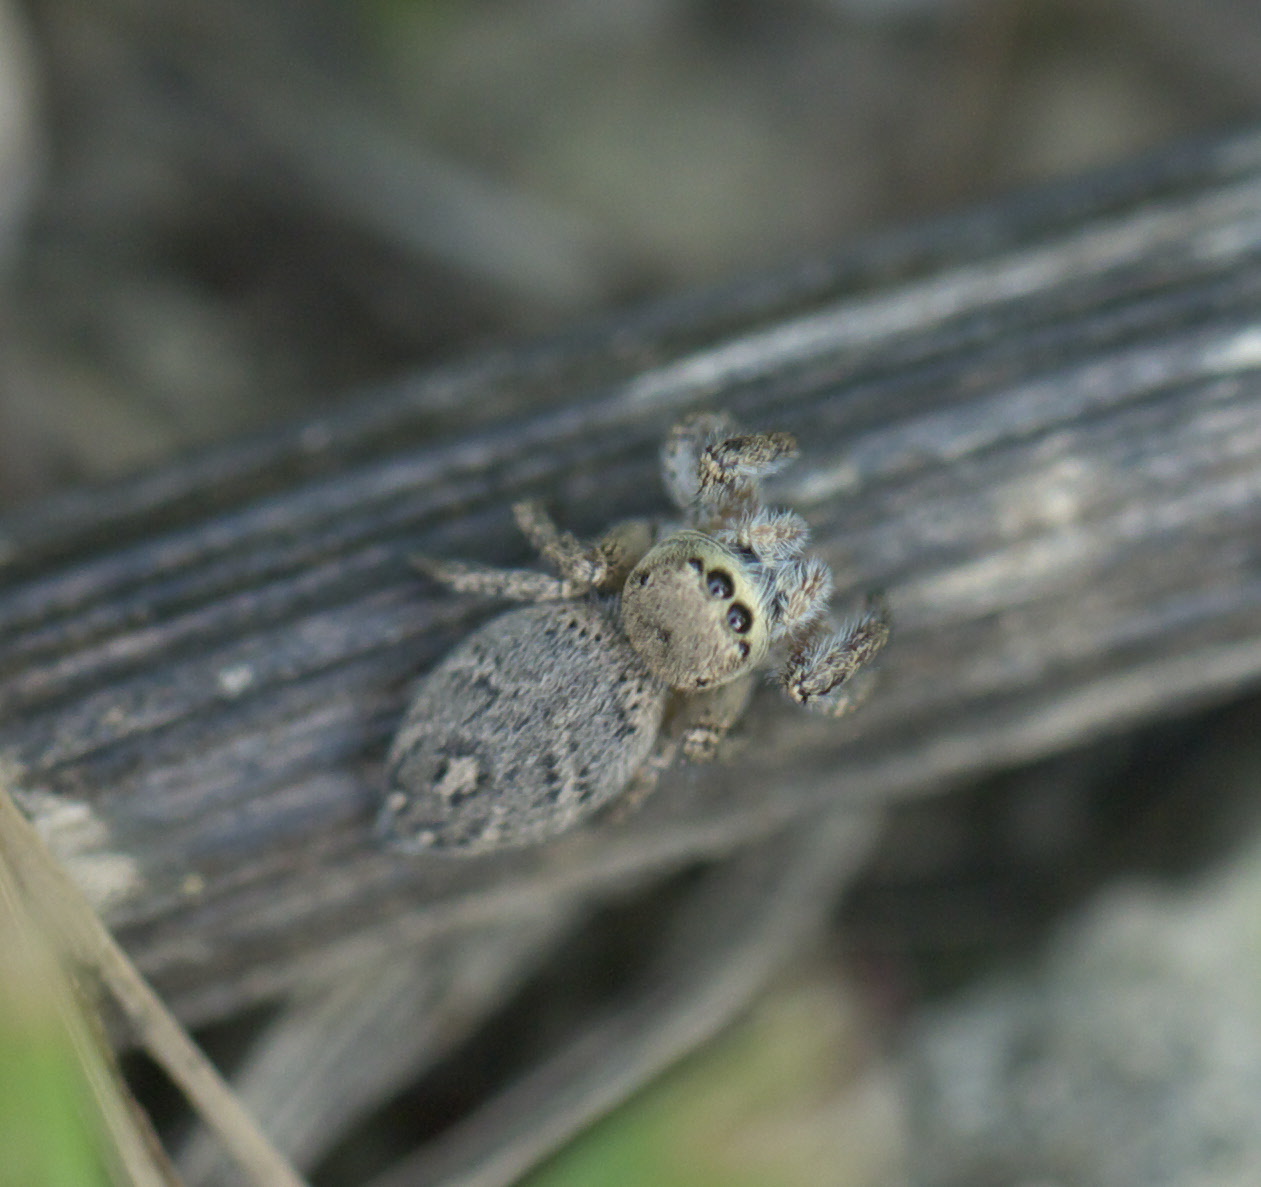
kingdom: Animalia
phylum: Arthropoda
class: Arachnida
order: Araneae
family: Salticidae
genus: Habronattus
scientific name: Habronattus coecatus
